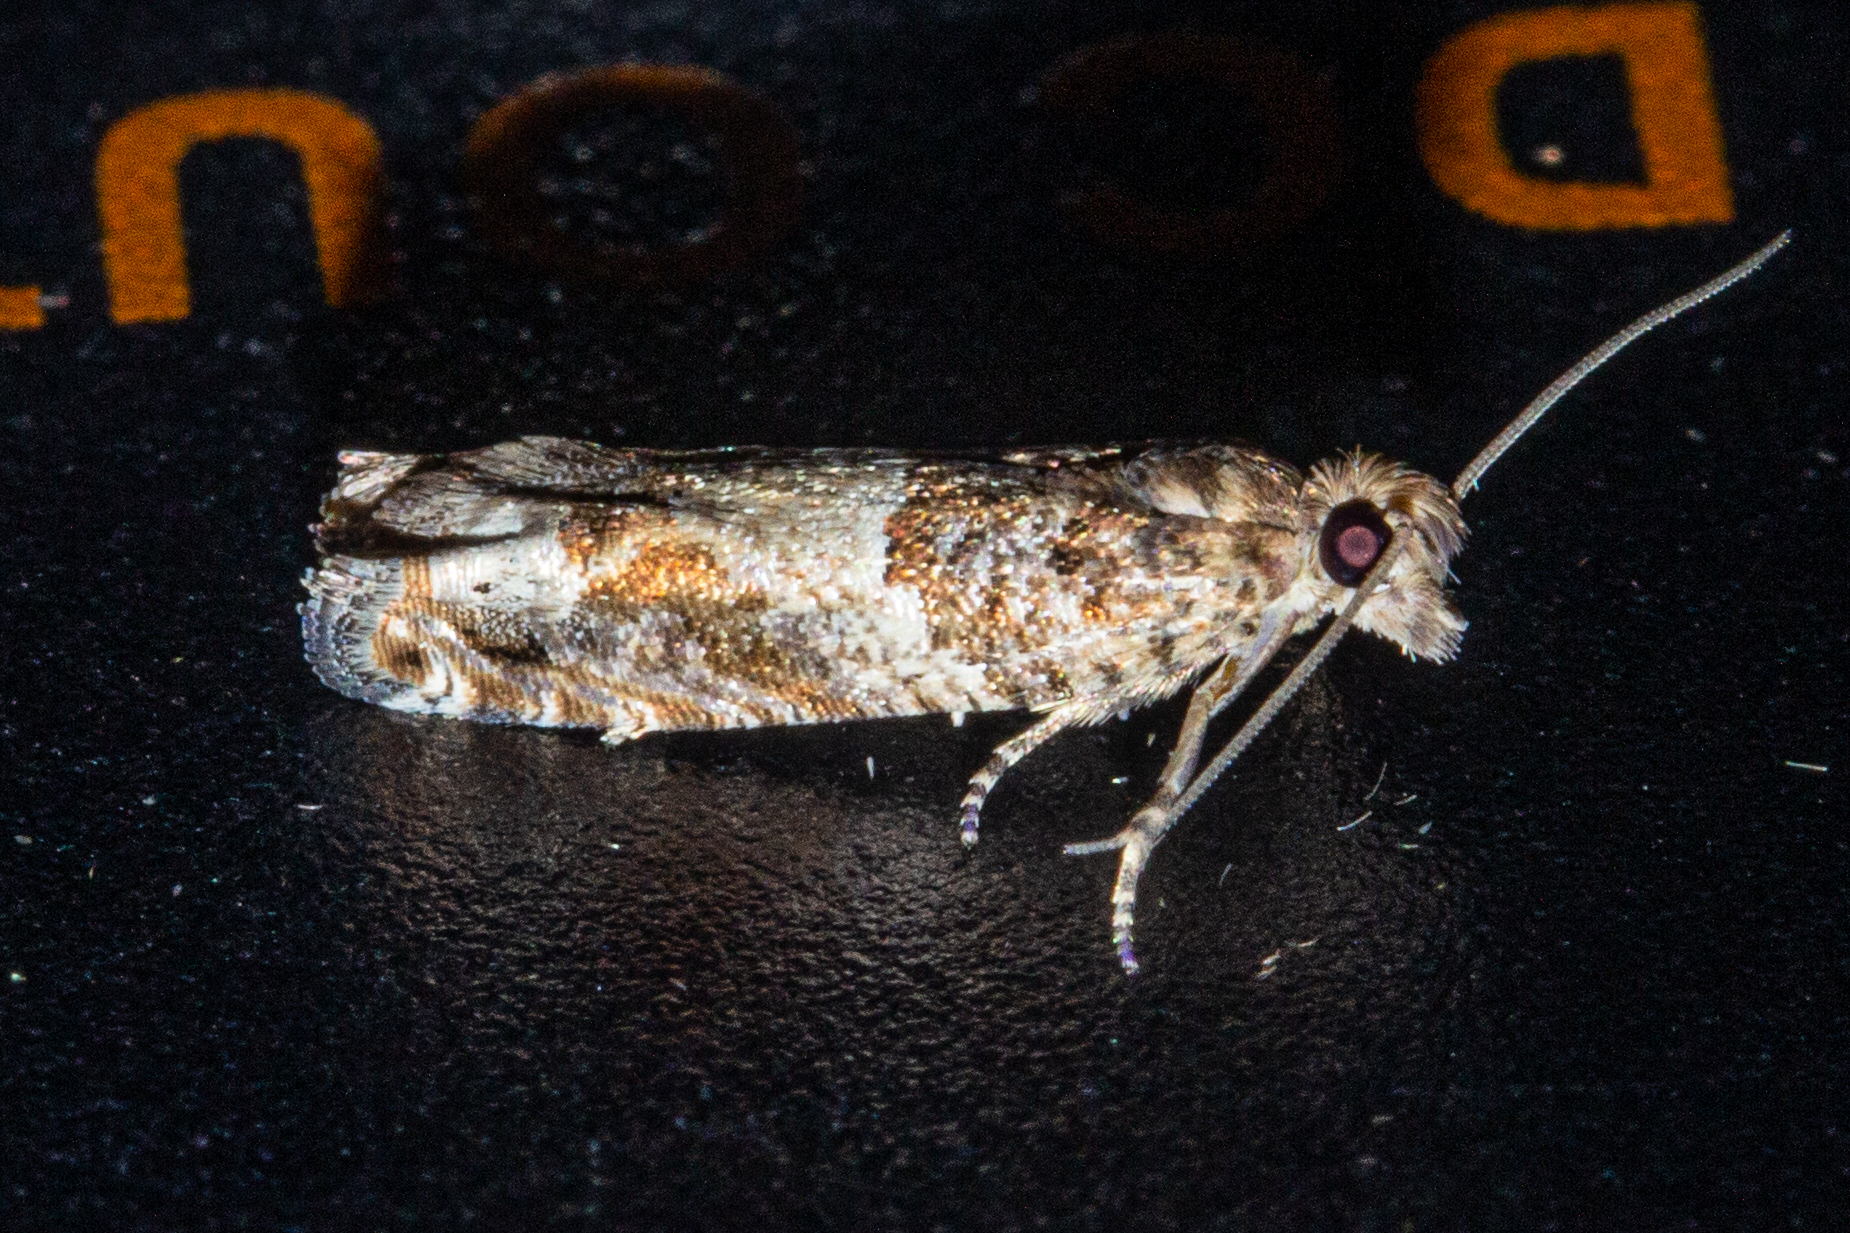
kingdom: Animalia
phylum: Arthropoda
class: Insecta
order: Lepidoptera
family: Tortricidae
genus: Crocidosema
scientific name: Crocidosema plebejana
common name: Southern bell
